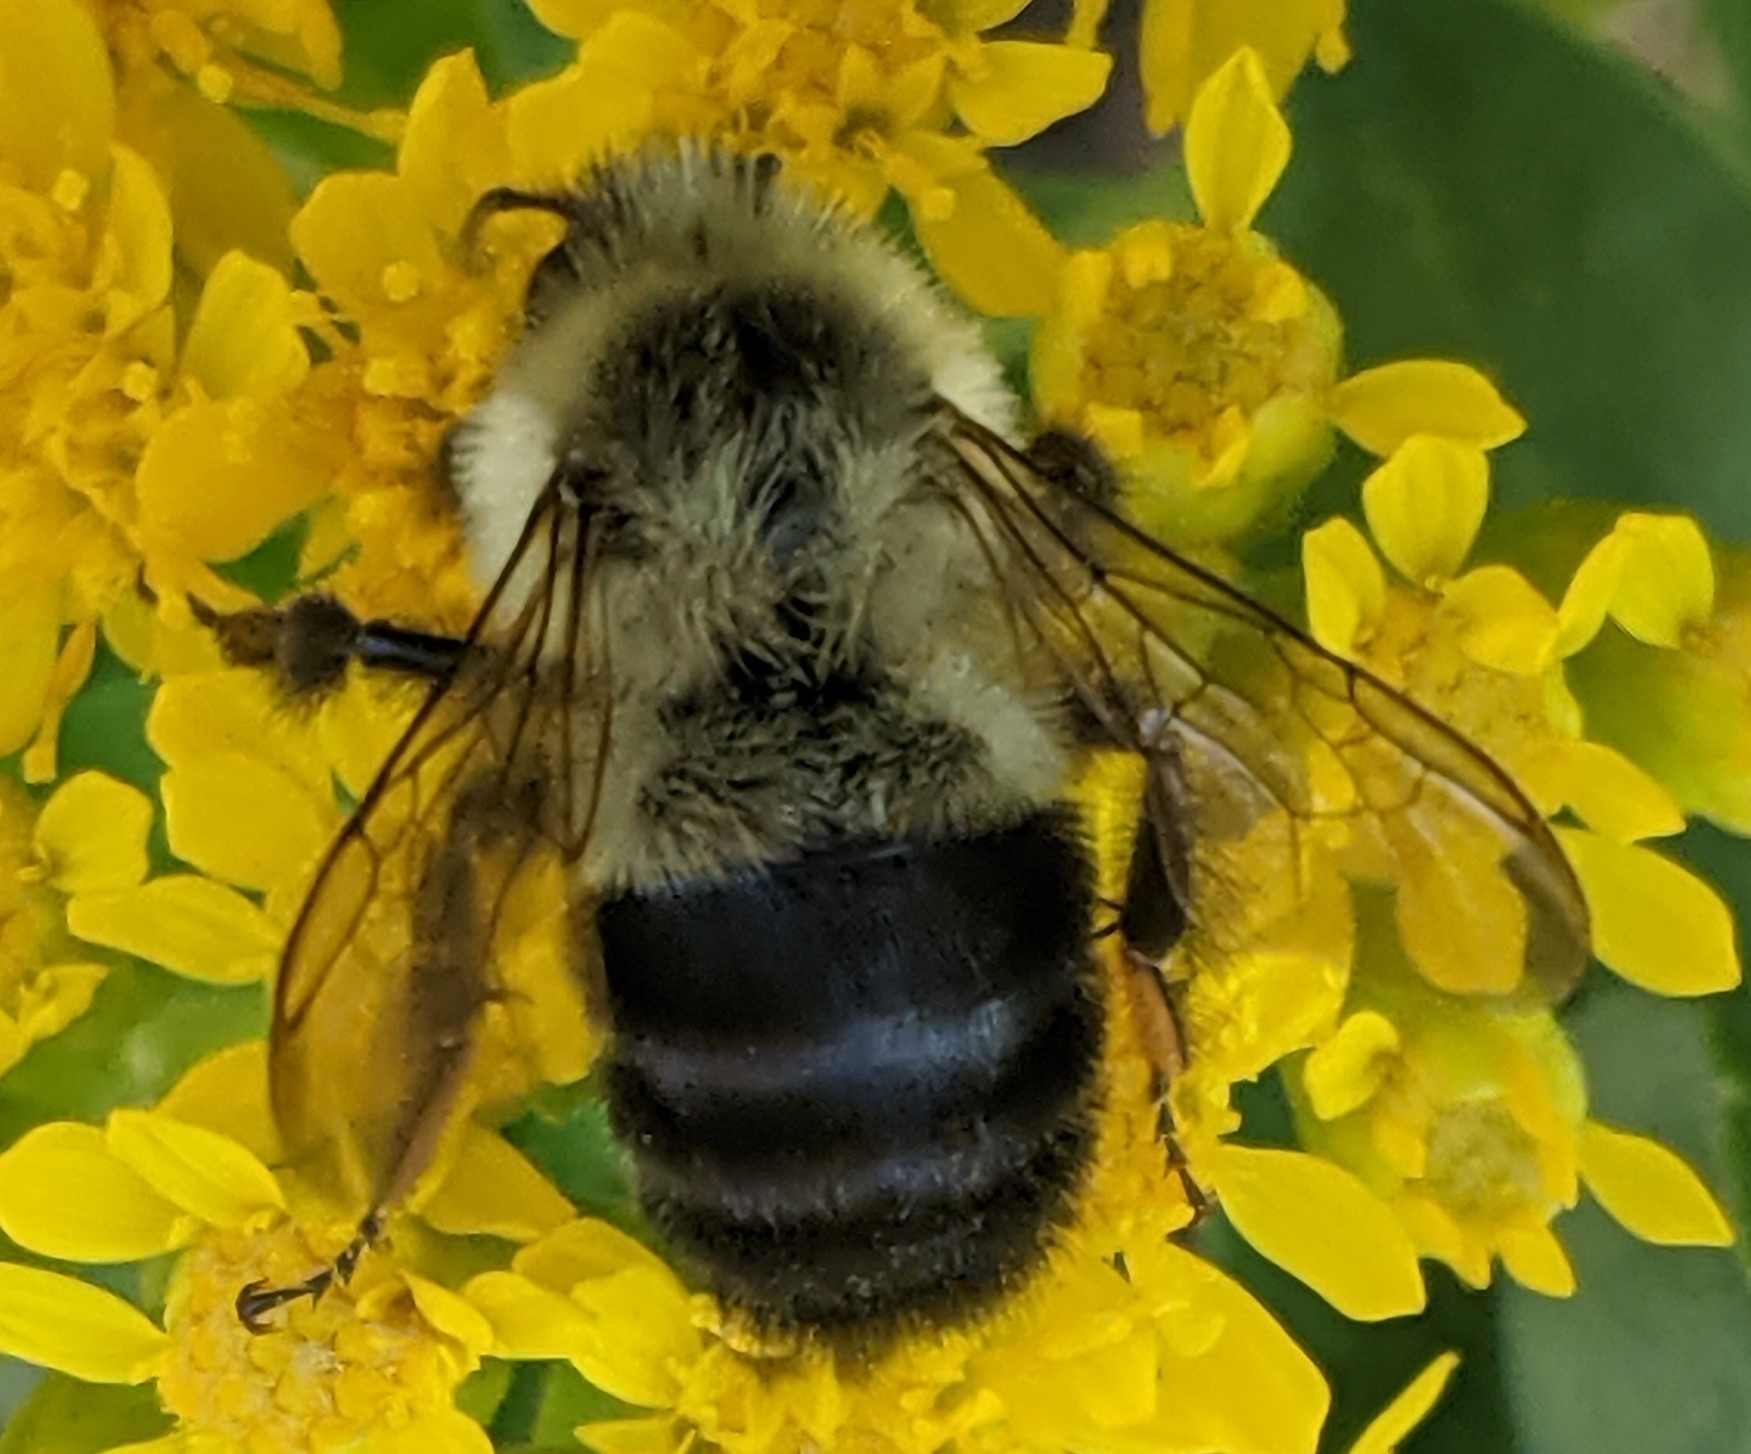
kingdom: Animalia
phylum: Arthropoda
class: Insecta
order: Hymenoptera
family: Apidae
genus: Bombus
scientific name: Bombus impatiens
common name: Common eastern bumble bee
